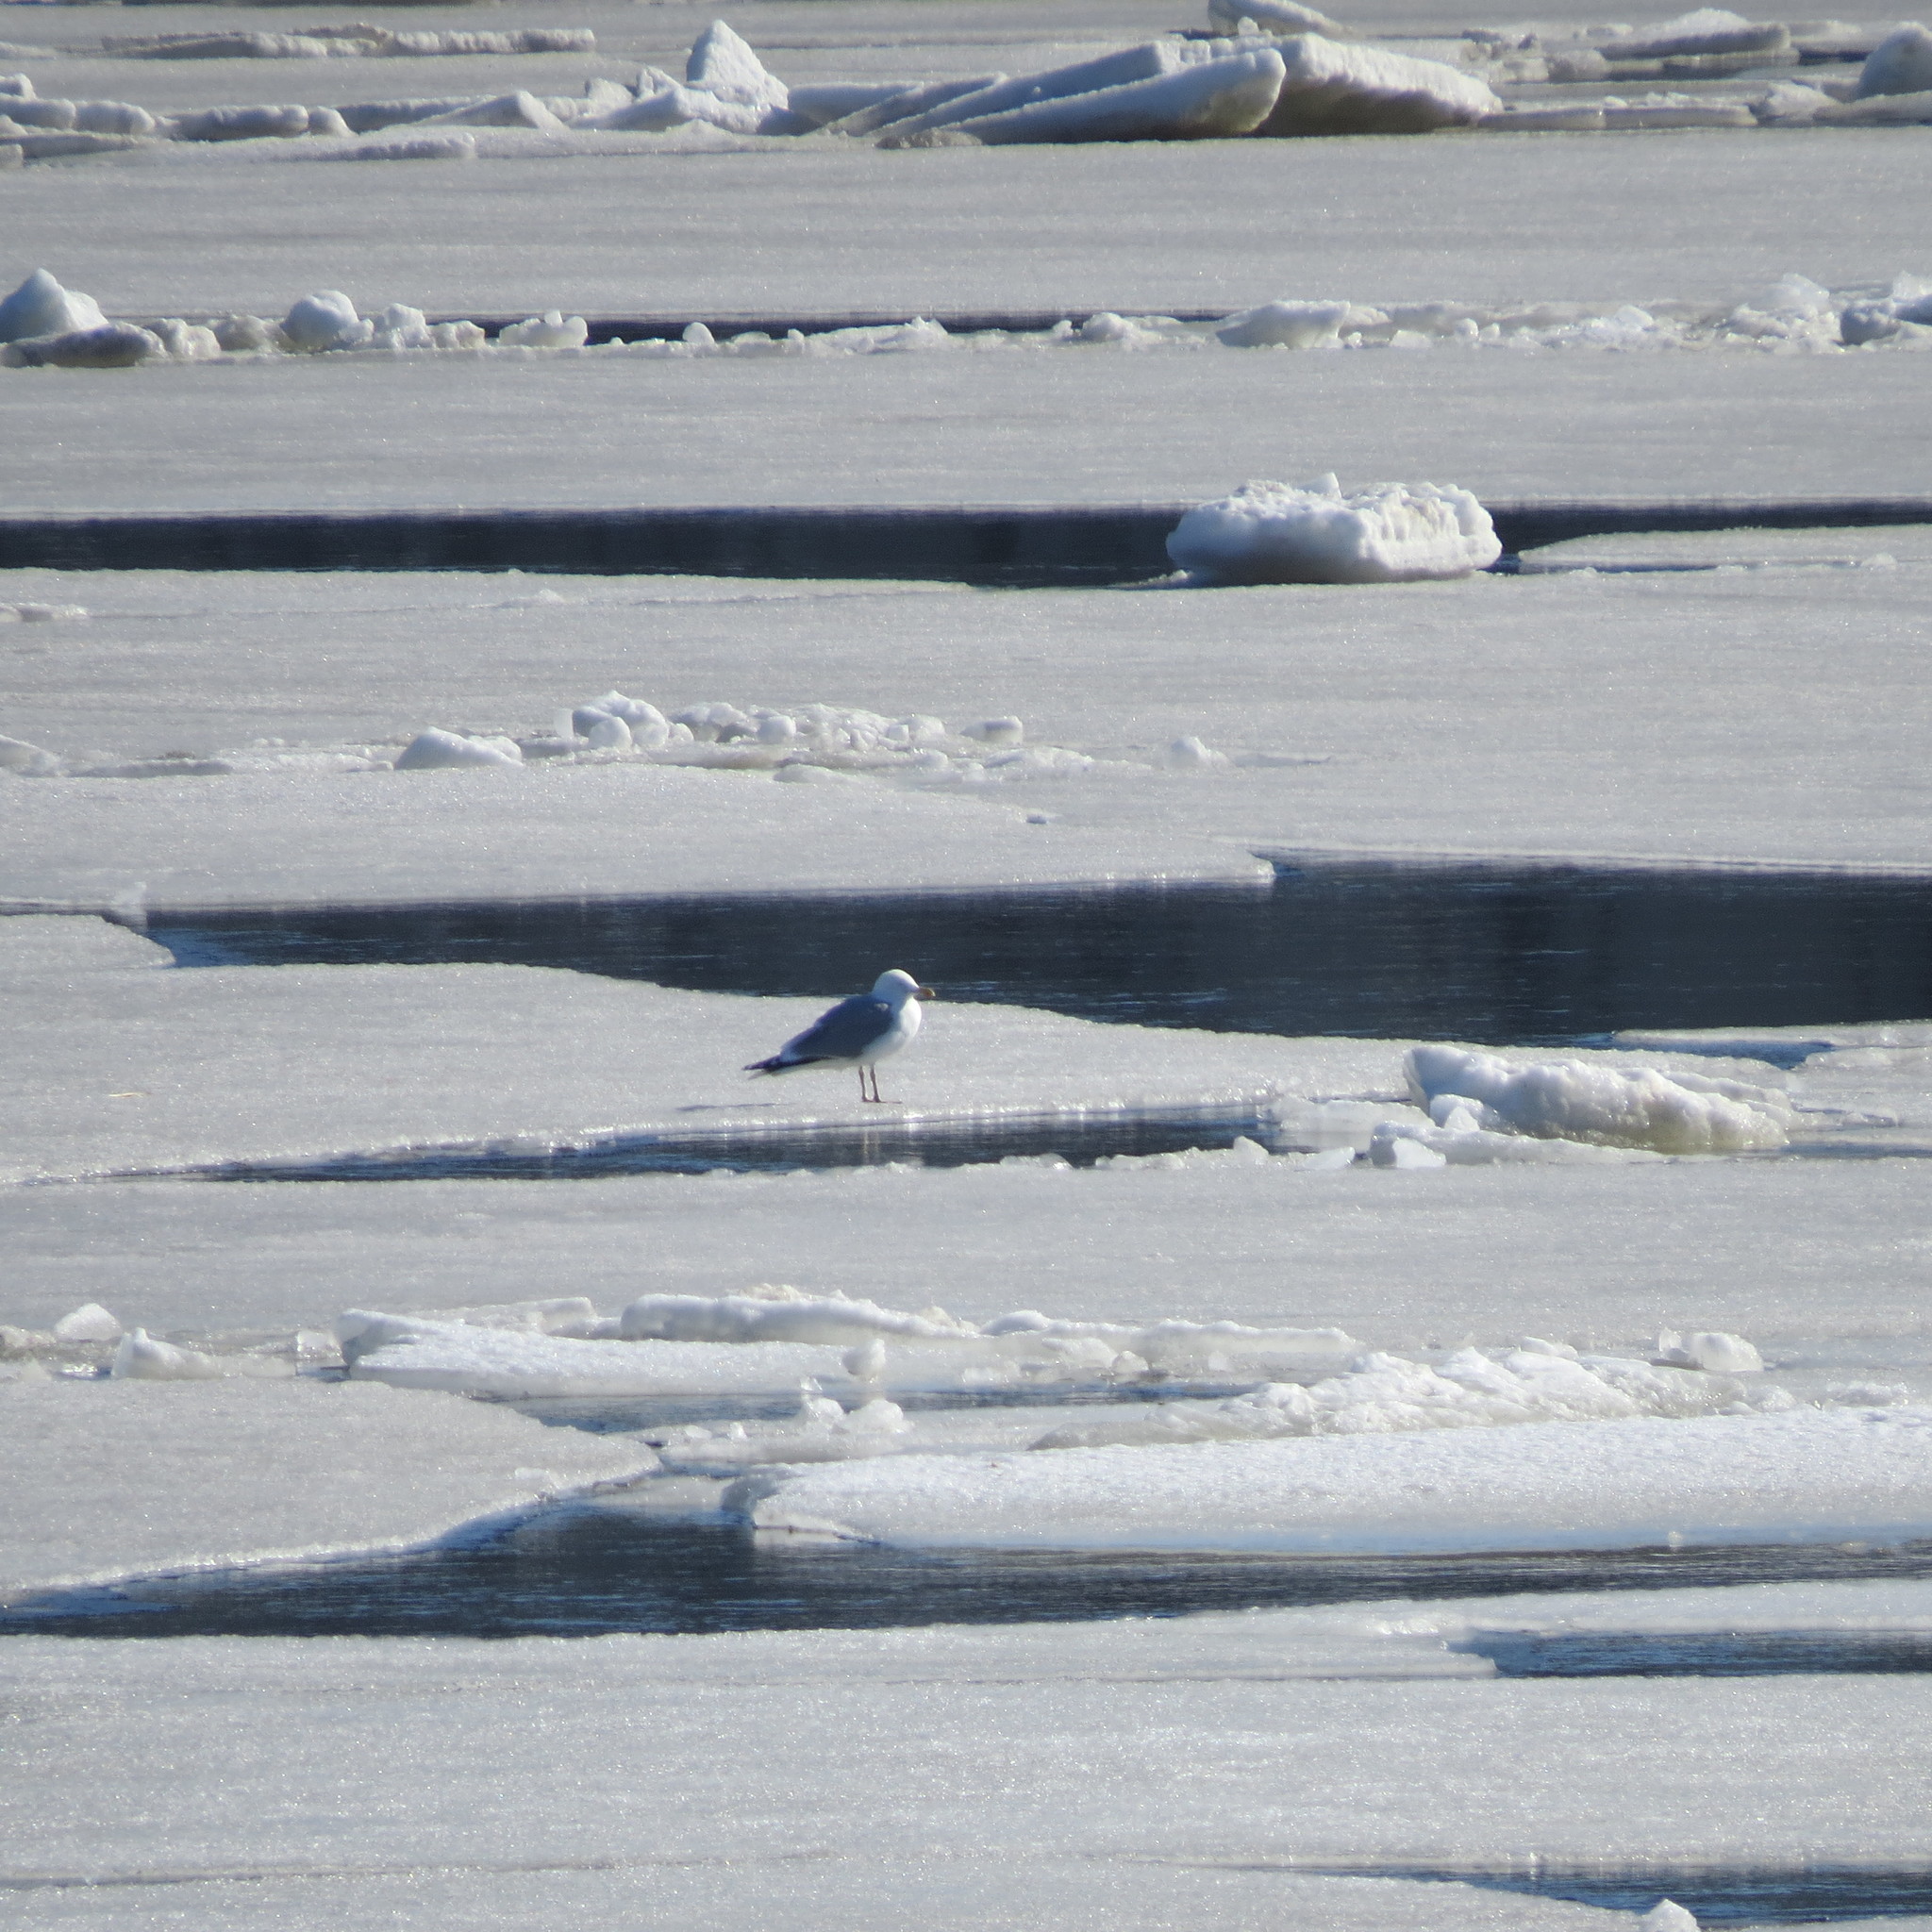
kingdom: Animalia
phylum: Chordata
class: Aves
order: Charadriiformes
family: Laridae
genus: Larus
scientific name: Larus argentatus
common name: Herring gull
